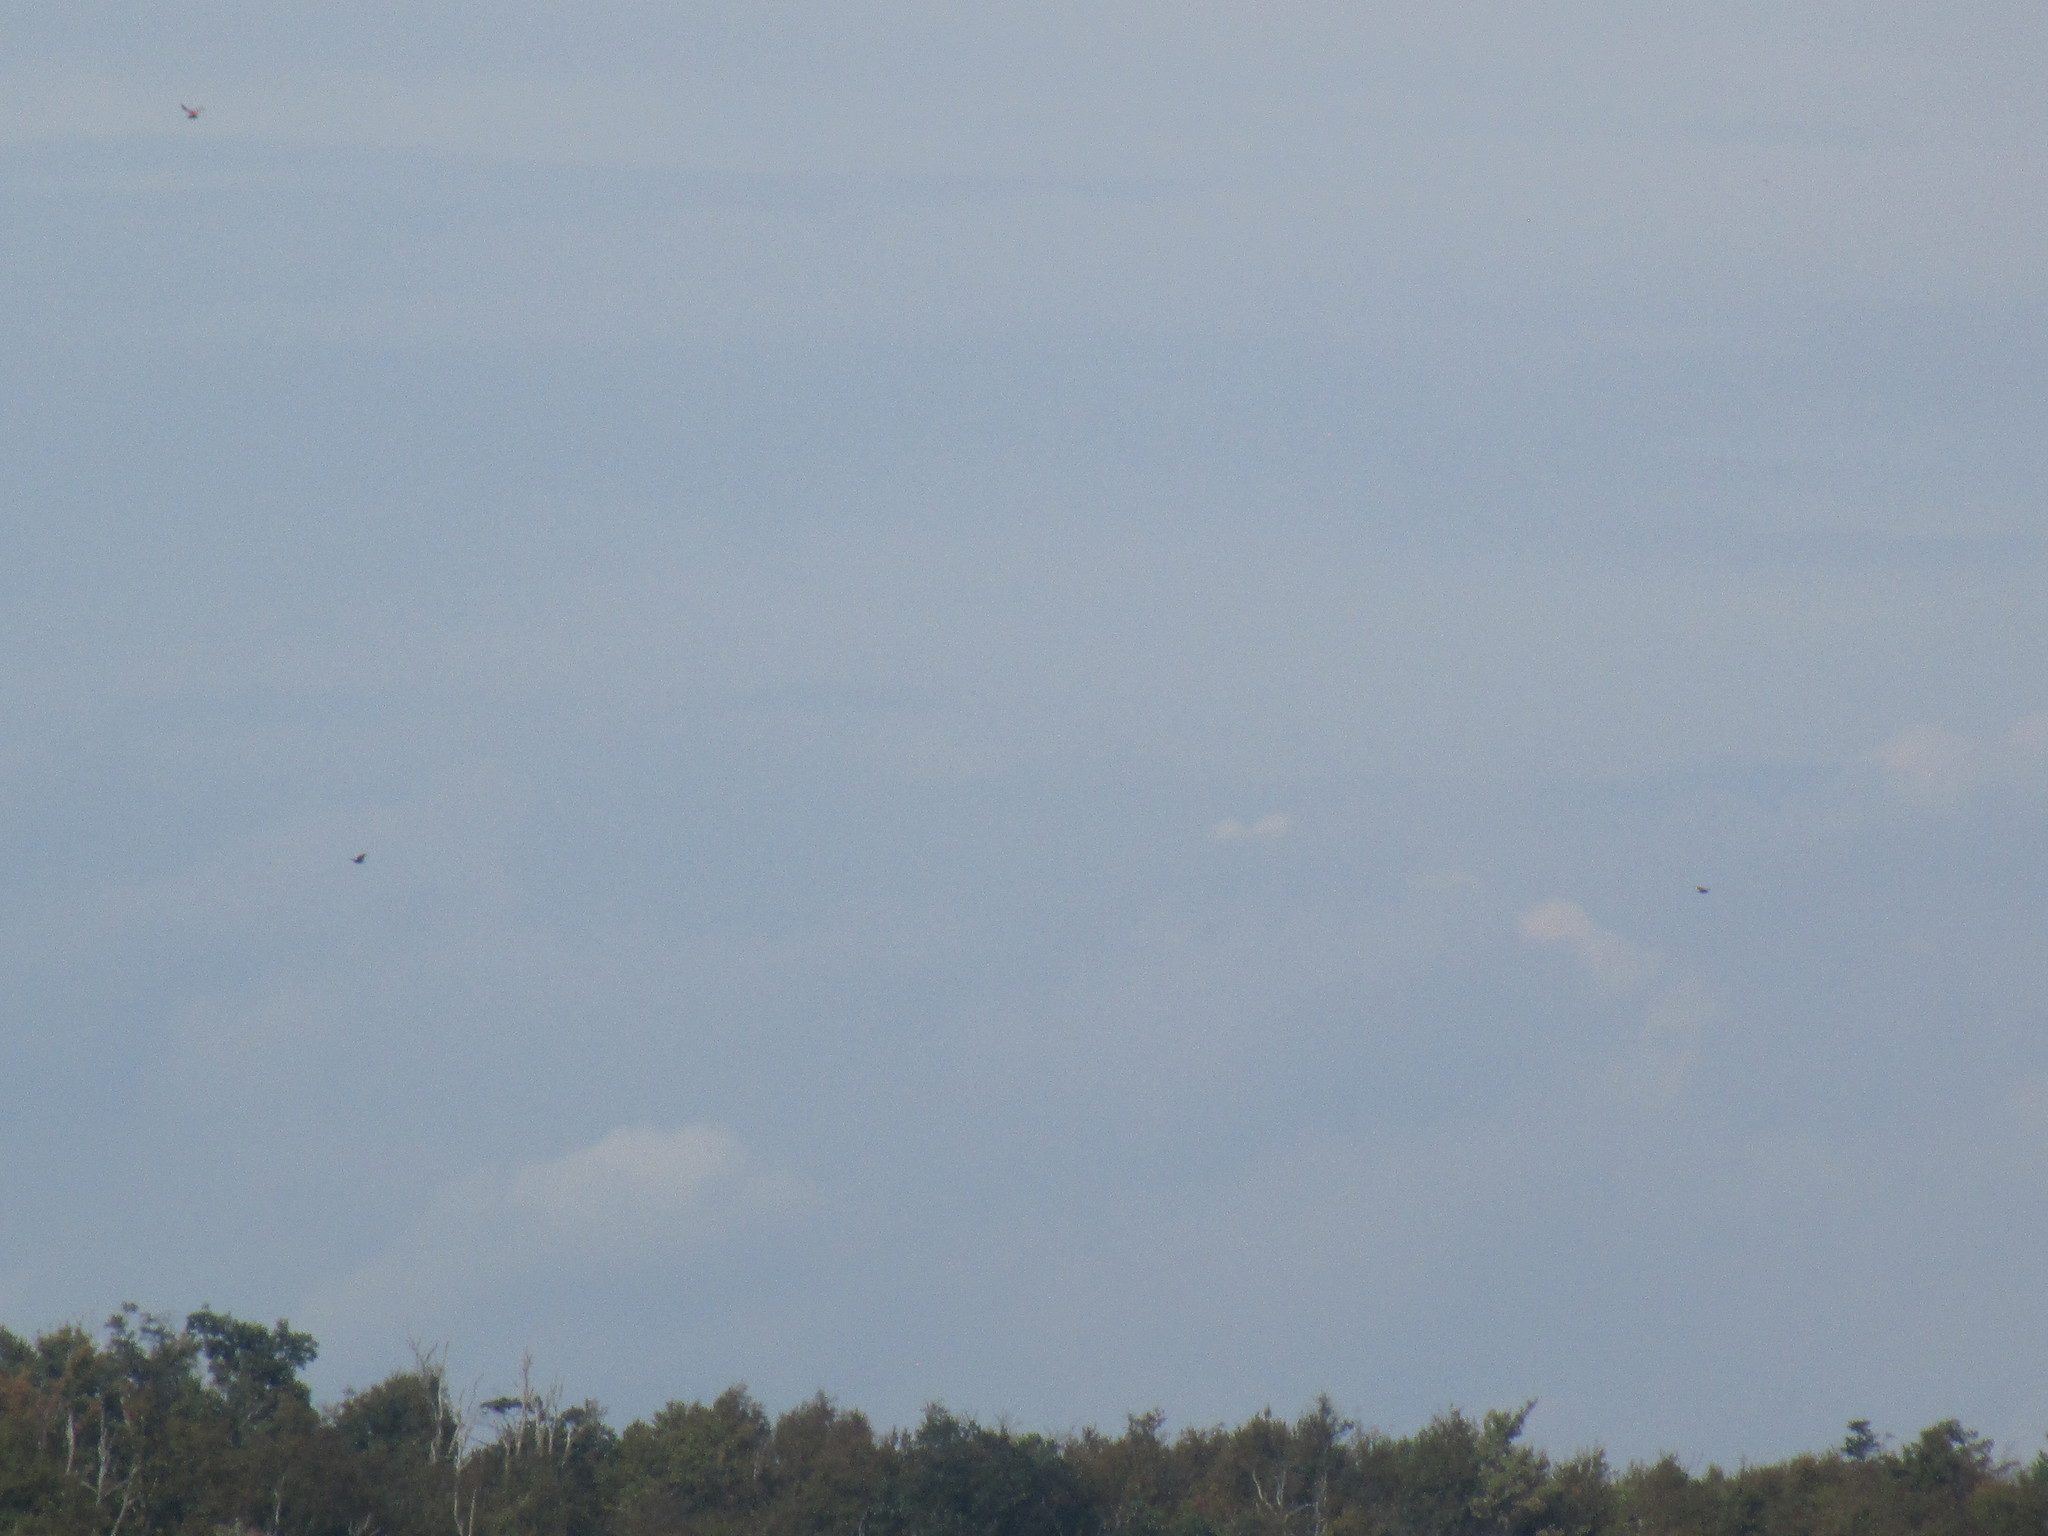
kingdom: Animalia
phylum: Chordata
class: Aves
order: Accipitriformes
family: Cathartidae
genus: Cathartes
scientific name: Cathartes aura
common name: Turkey vulture
